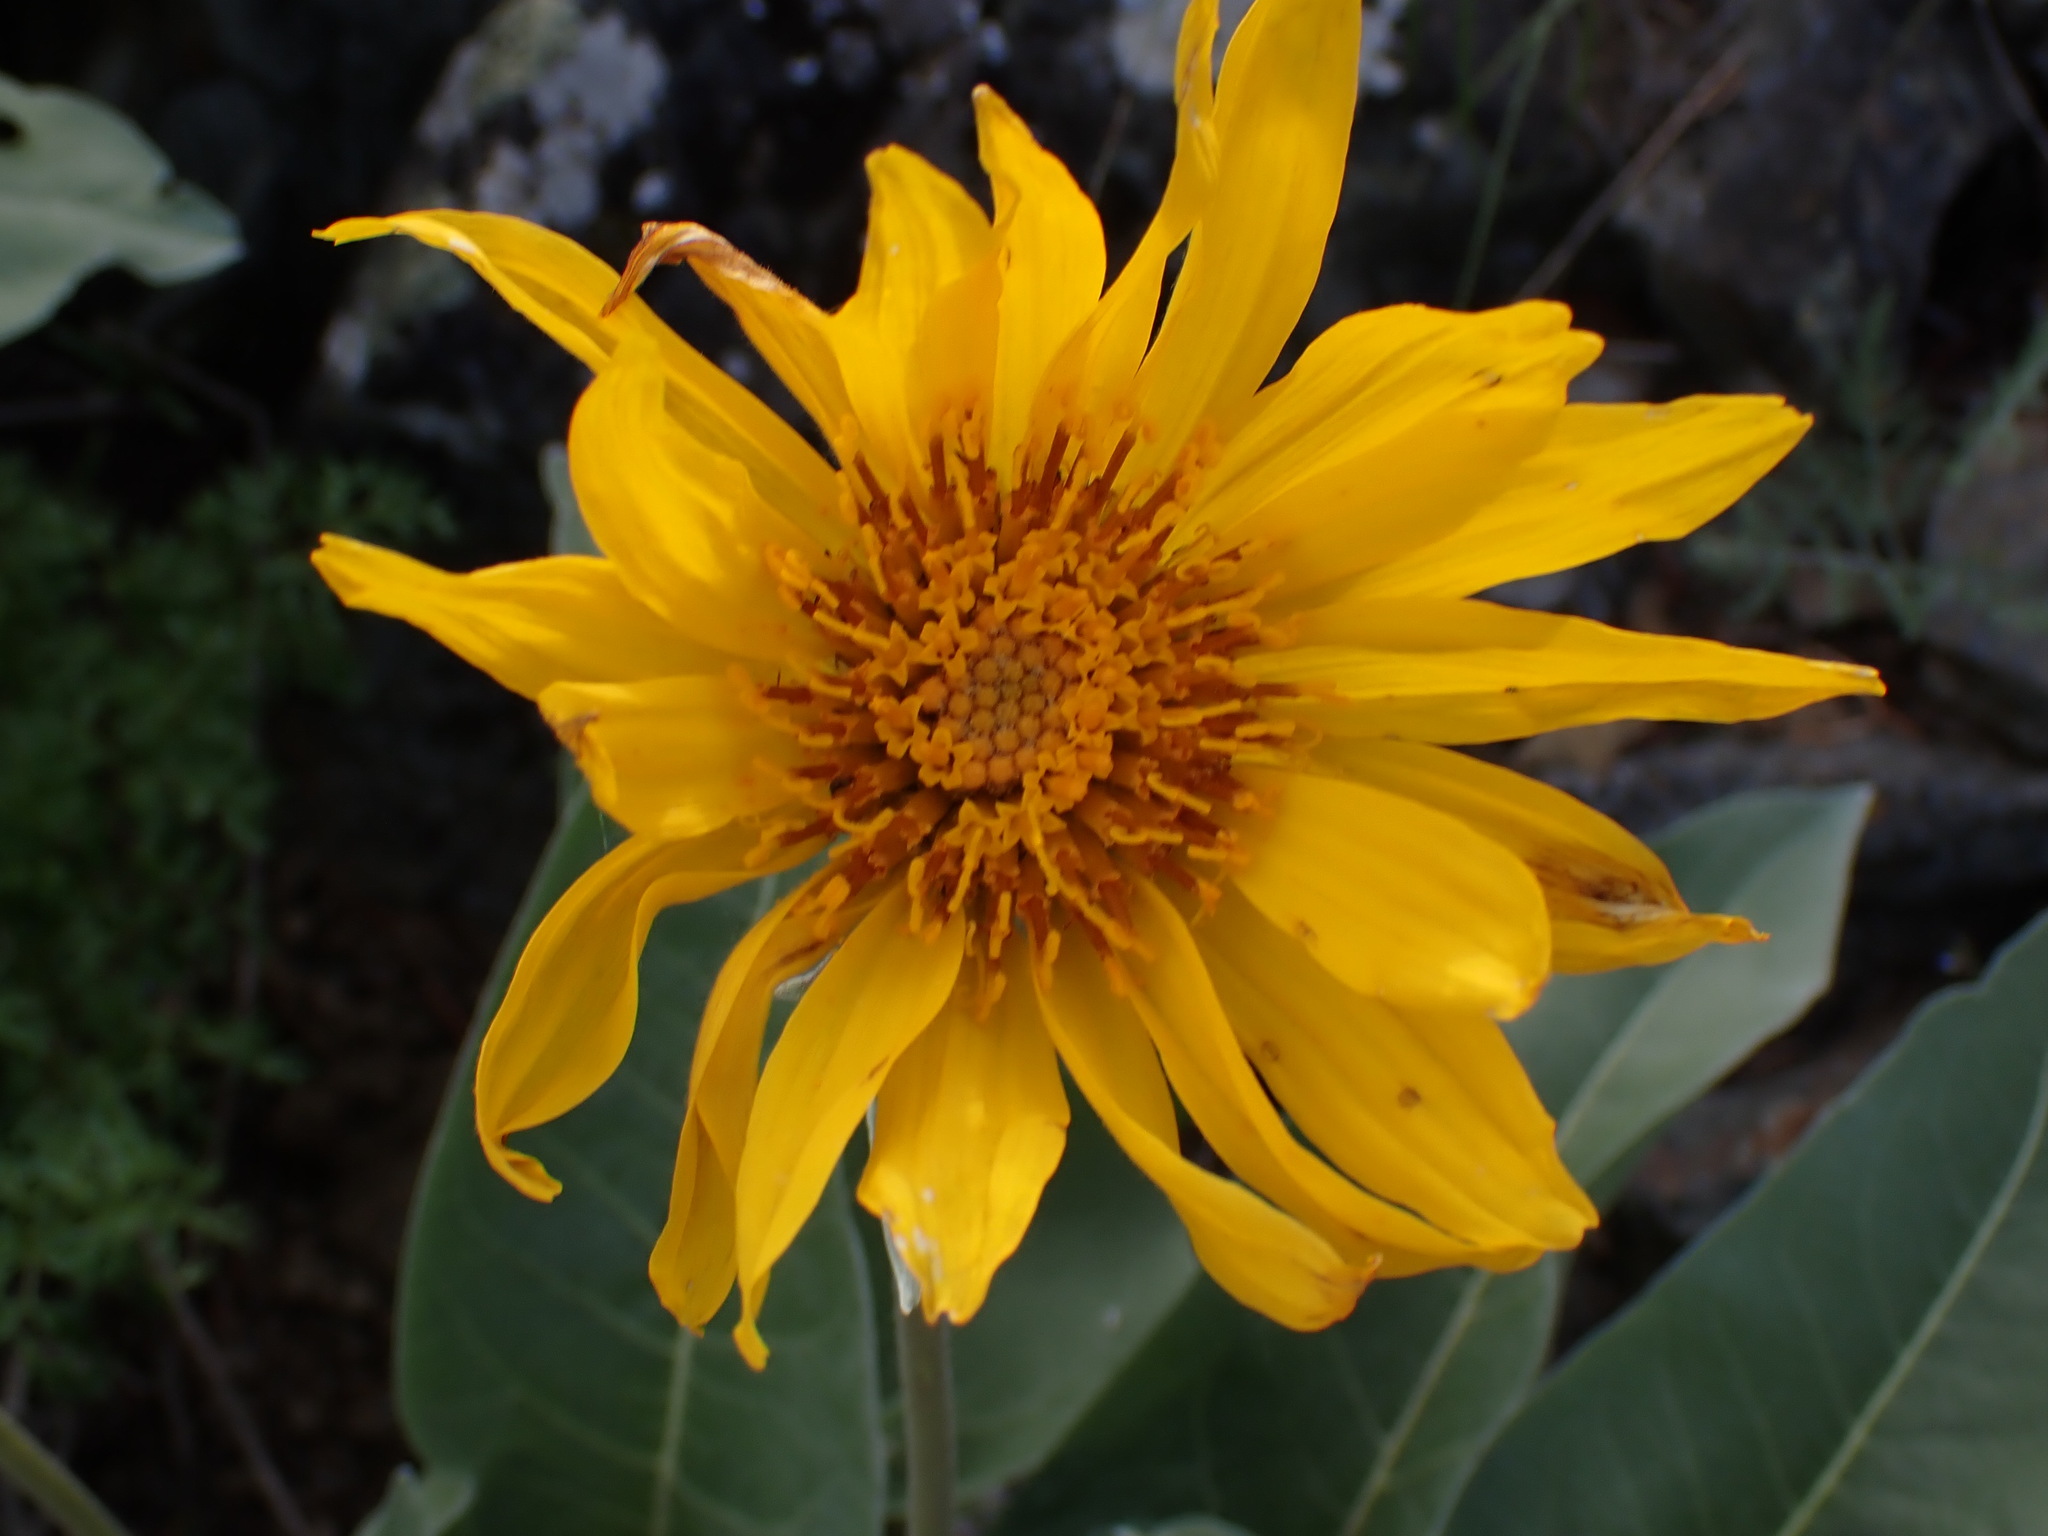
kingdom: Plantae
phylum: Tracheophyta
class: Magnoliopsida
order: Asterales
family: Asteraceae
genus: Wyethia
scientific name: Wyethia sagittata
